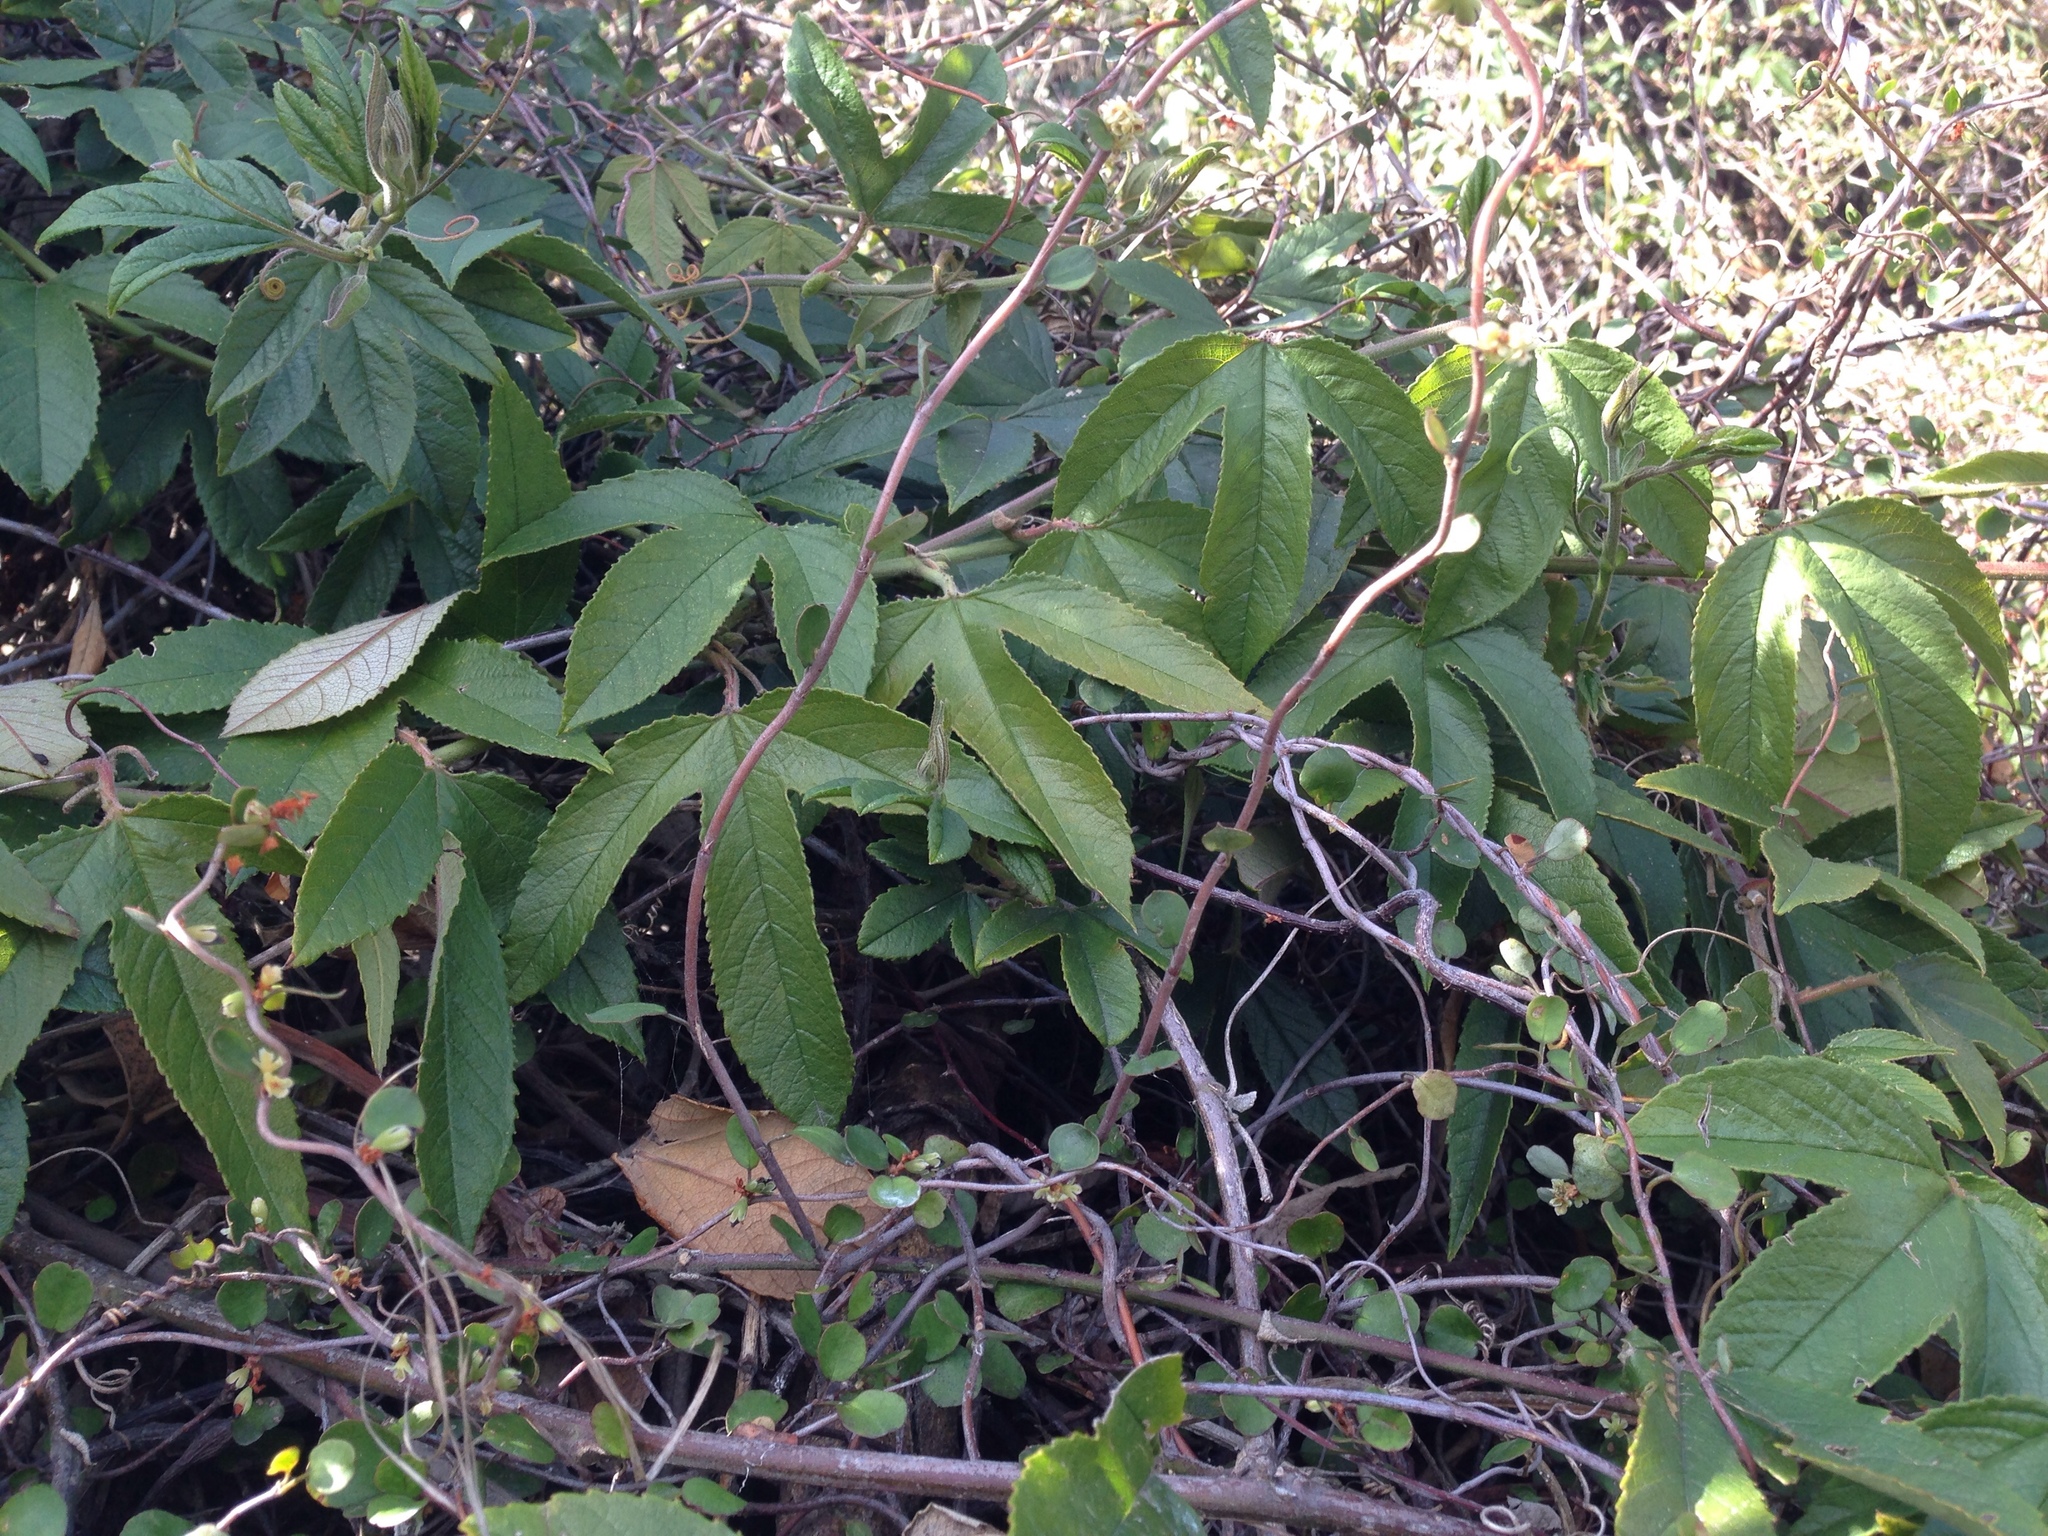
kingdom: Plantae
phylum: Tracheophyta
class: Magnoliopsida
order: Malpighiales
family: Passifloraceae
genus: Passiflora
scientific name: Passiflora tripartita
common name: Banana poka
